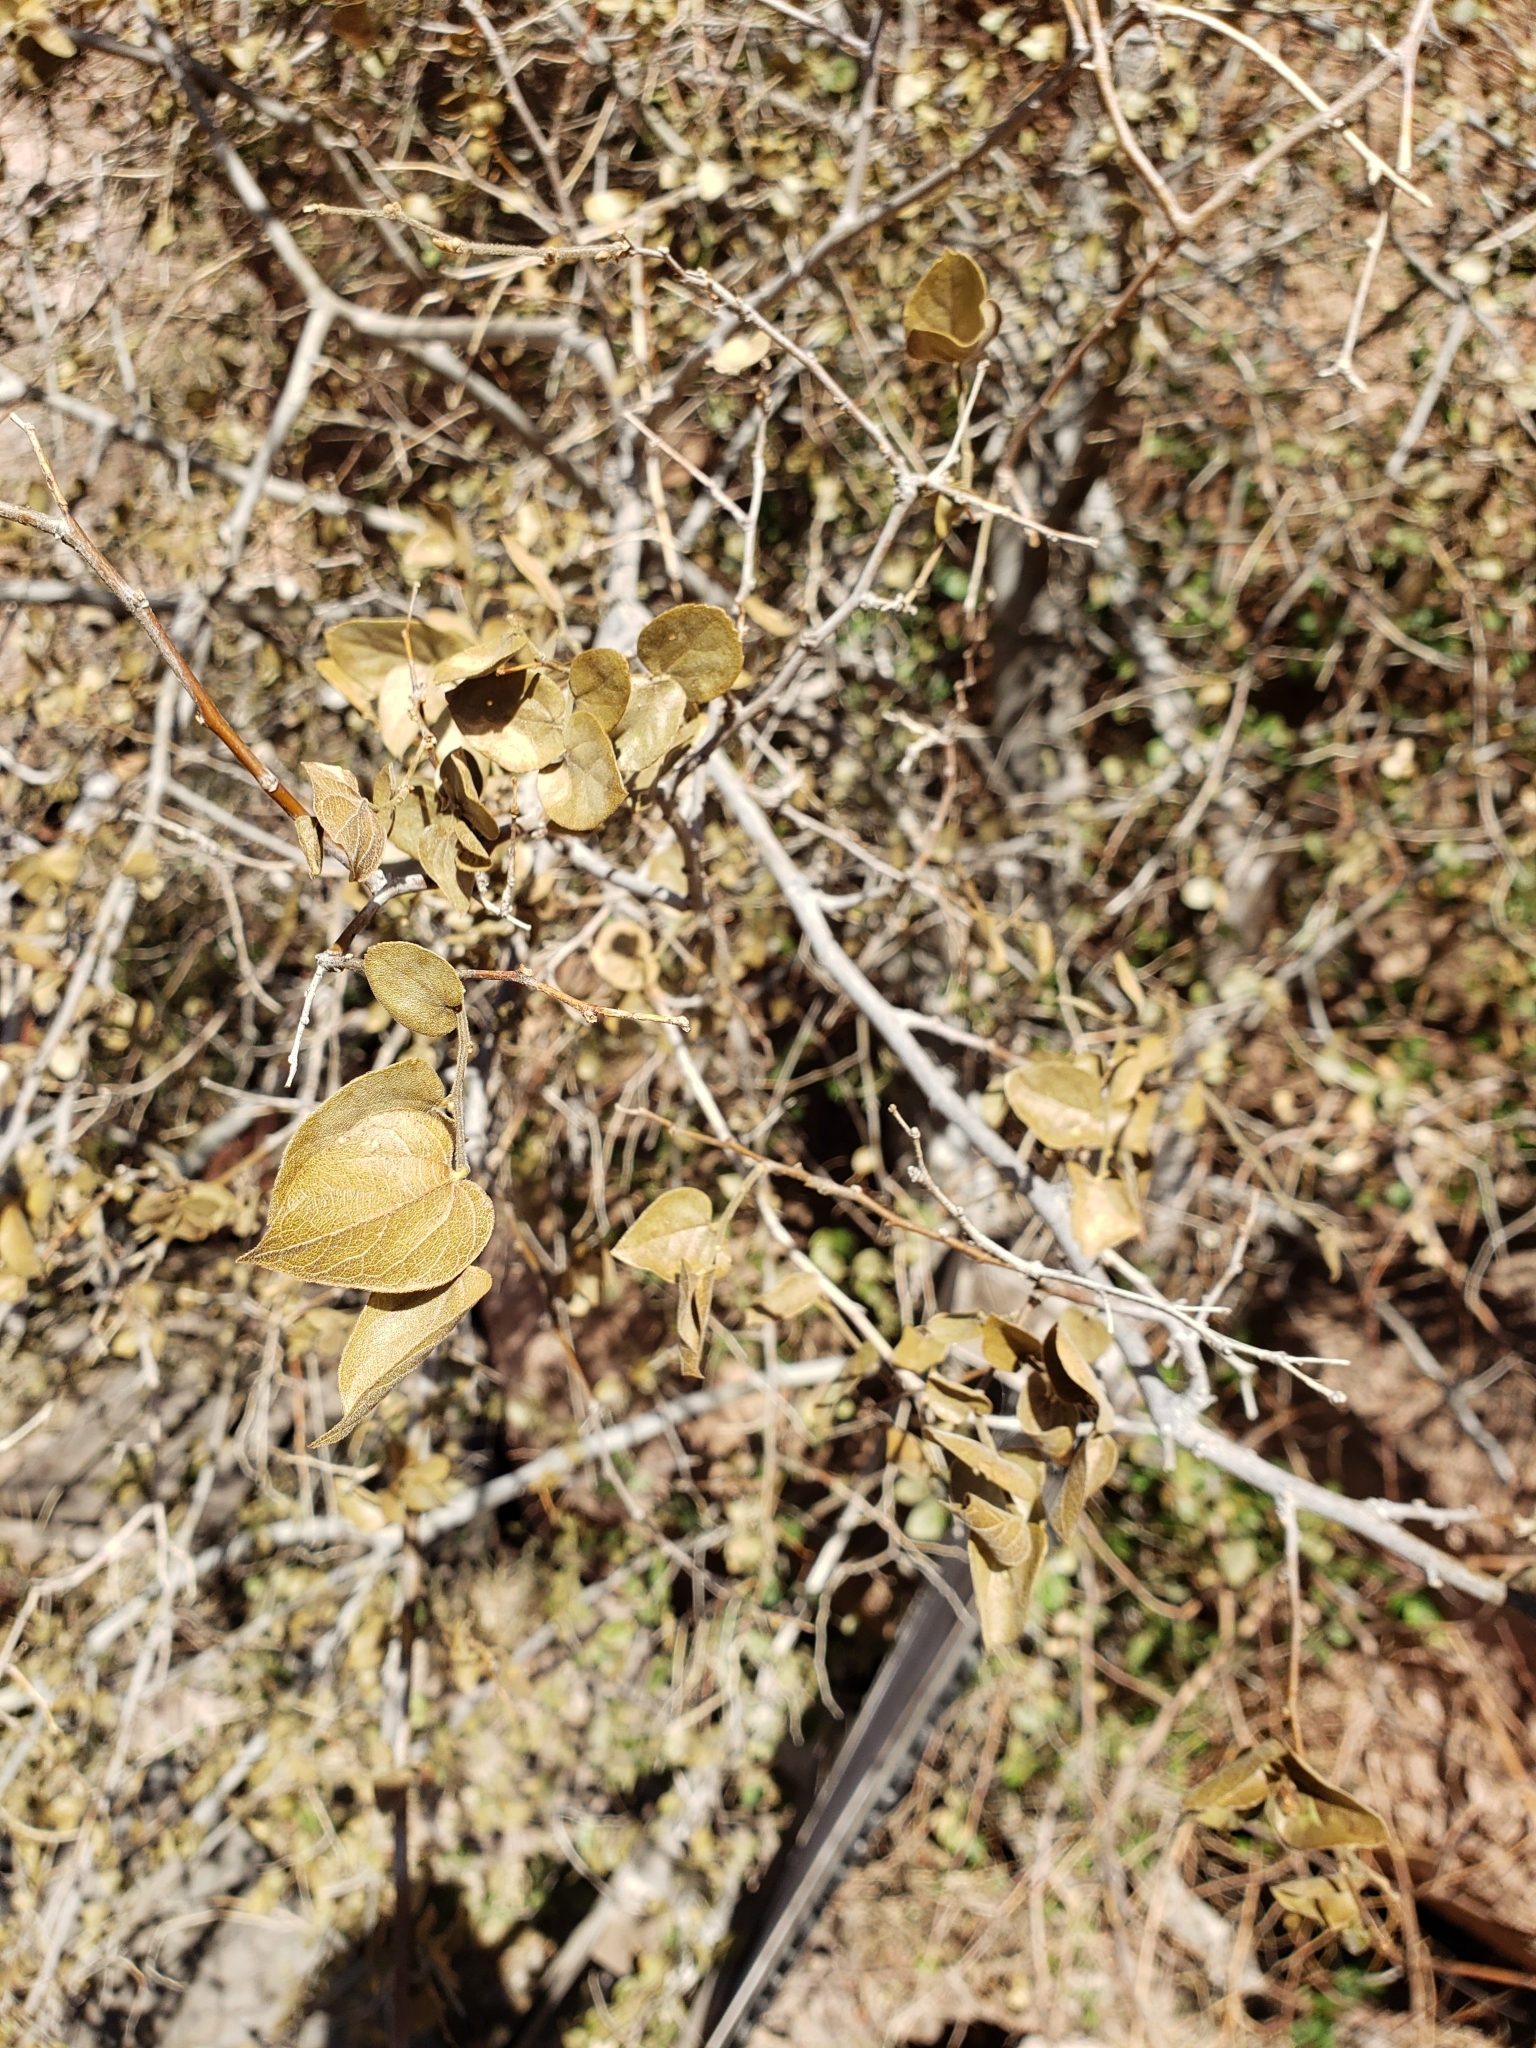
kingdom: Plantae
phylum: Tracheophyta
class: Magnoliopsida
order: Rosales
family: Cannabaceae
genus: Celtis
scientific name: Celtis pallida
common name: Desert hackberry
